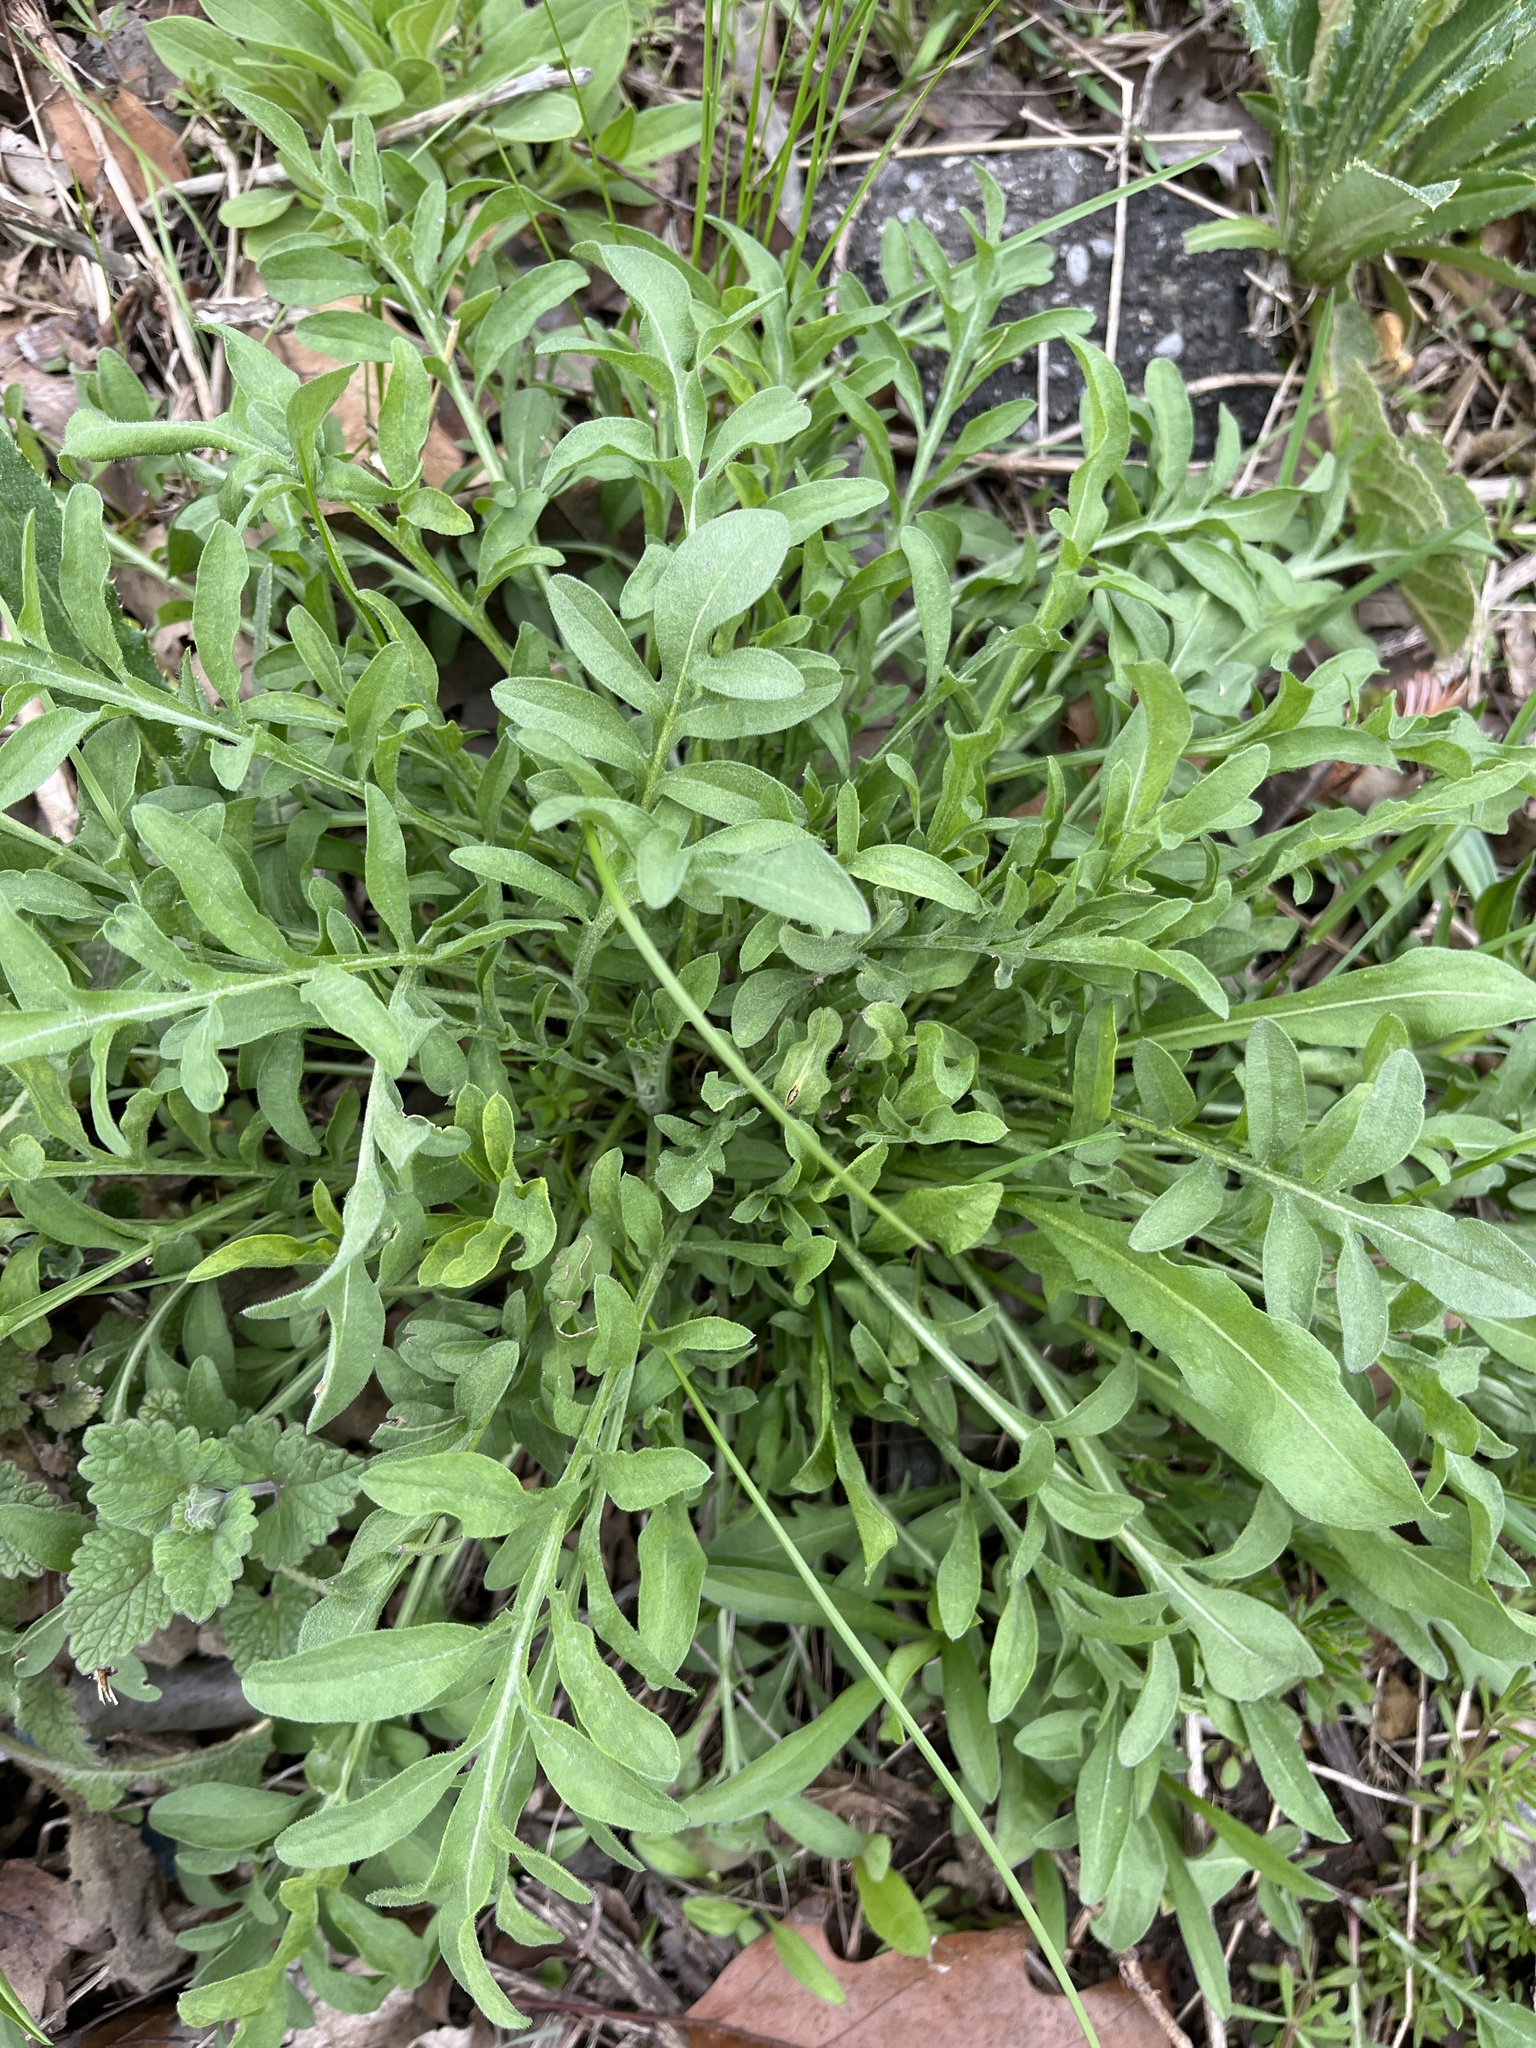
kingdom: Plantae
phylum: Tracheophyta
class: Magnoliopsida
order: Asterales
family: Asteraceae
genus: Centaurea
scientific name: Centaurea stoebe
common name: Spotted knapweed
